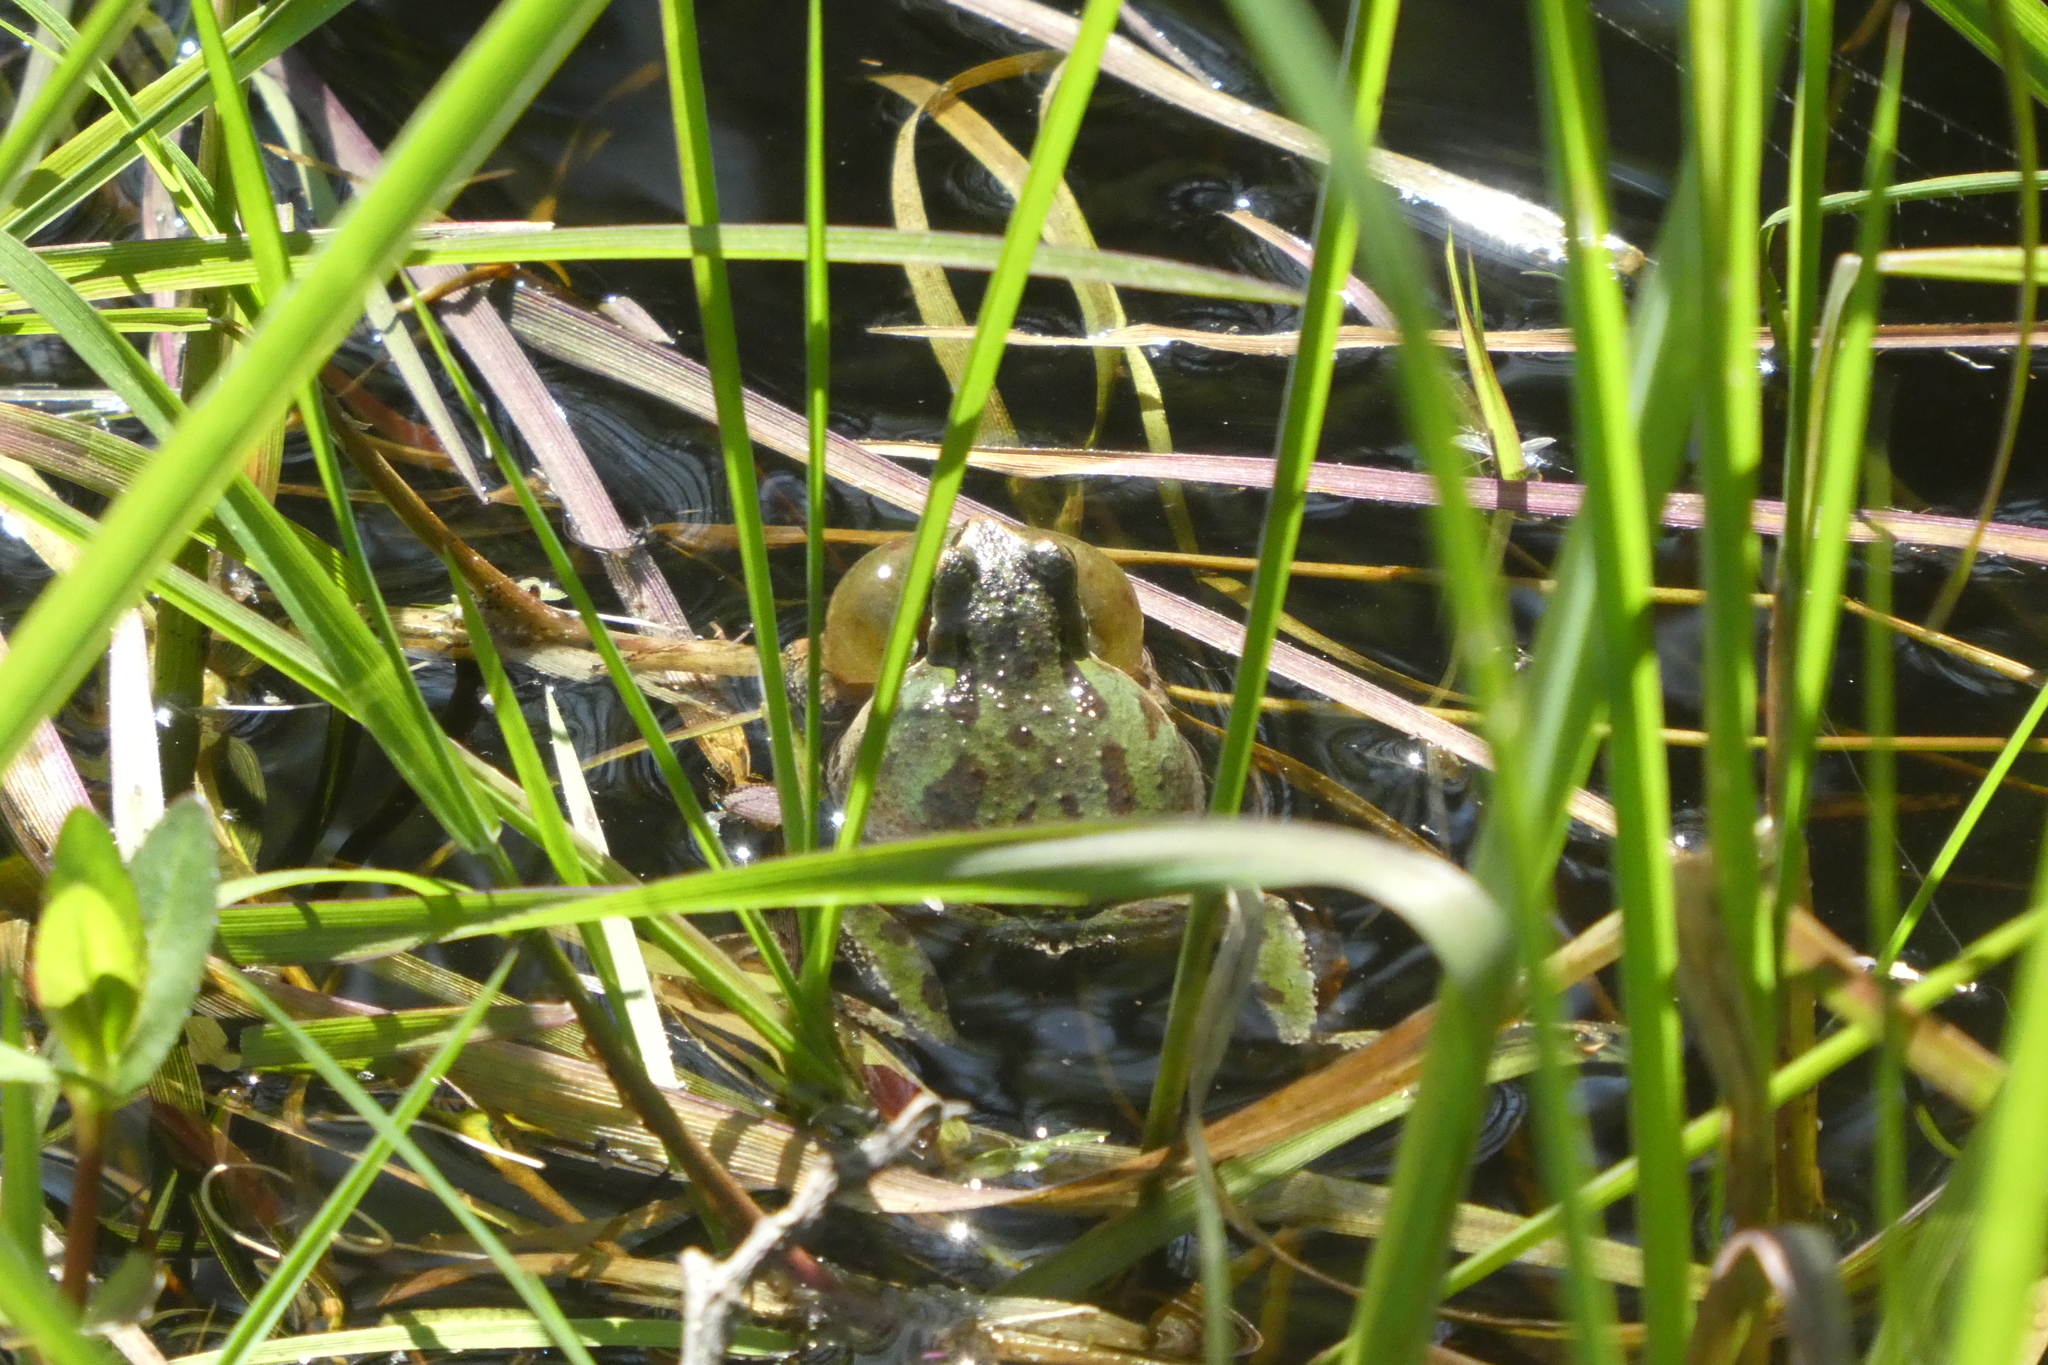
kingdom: Animalia
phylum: Chordata
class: Amphibia
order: Anura
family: Hylidae
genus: Pseudacris
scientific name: Pseudacris regilla
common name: Pacific chorus frog
